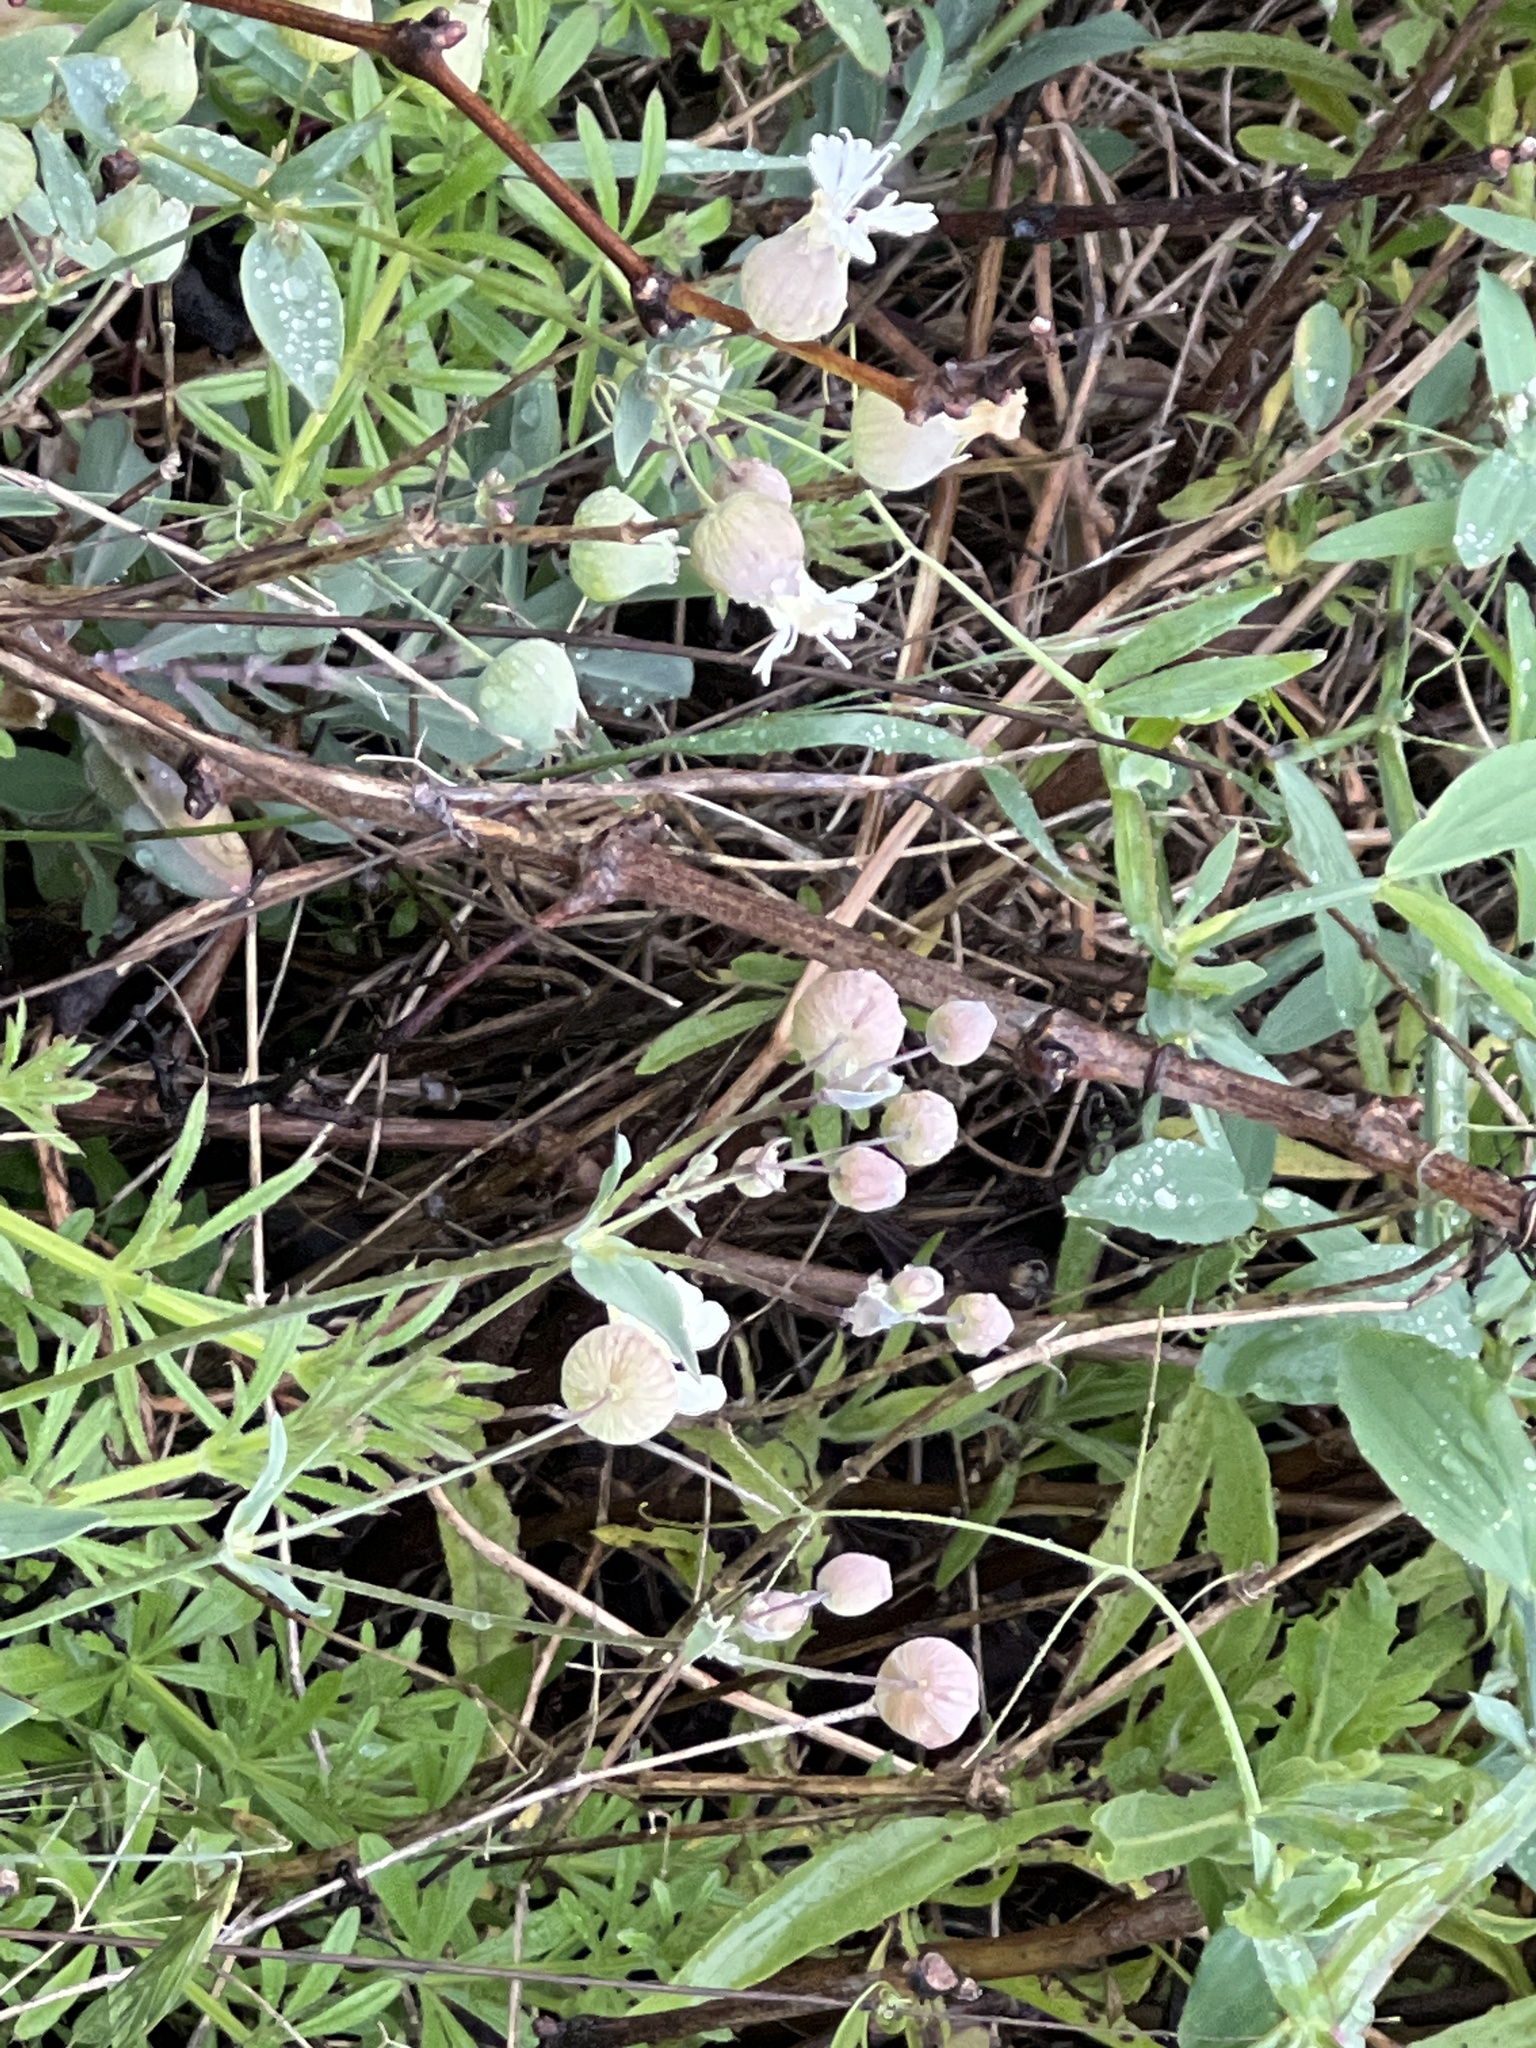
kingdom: Plantae
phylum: Tracheophyta
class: Magnoliopsida
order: Caryophyllales
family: Caryophyllaceae
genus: Silene
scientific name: Silene vulgaris
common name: Bladder campion
